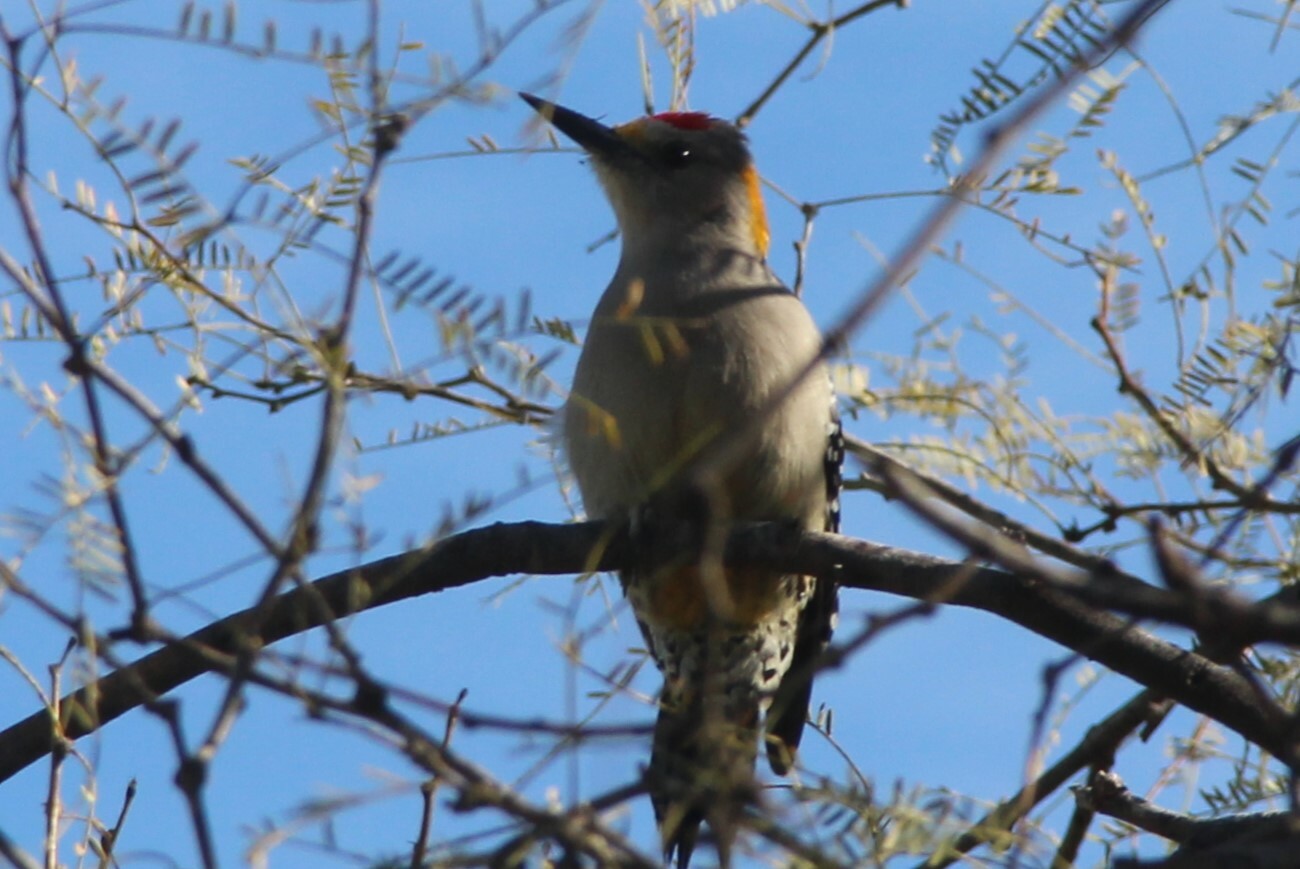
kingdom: Animalia
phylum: Chordata
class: Aves
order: Piciformes
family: Picidae
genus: Melanerpes
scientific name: Melanerpes aurifrons
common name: Golden-fronted woodpecker
